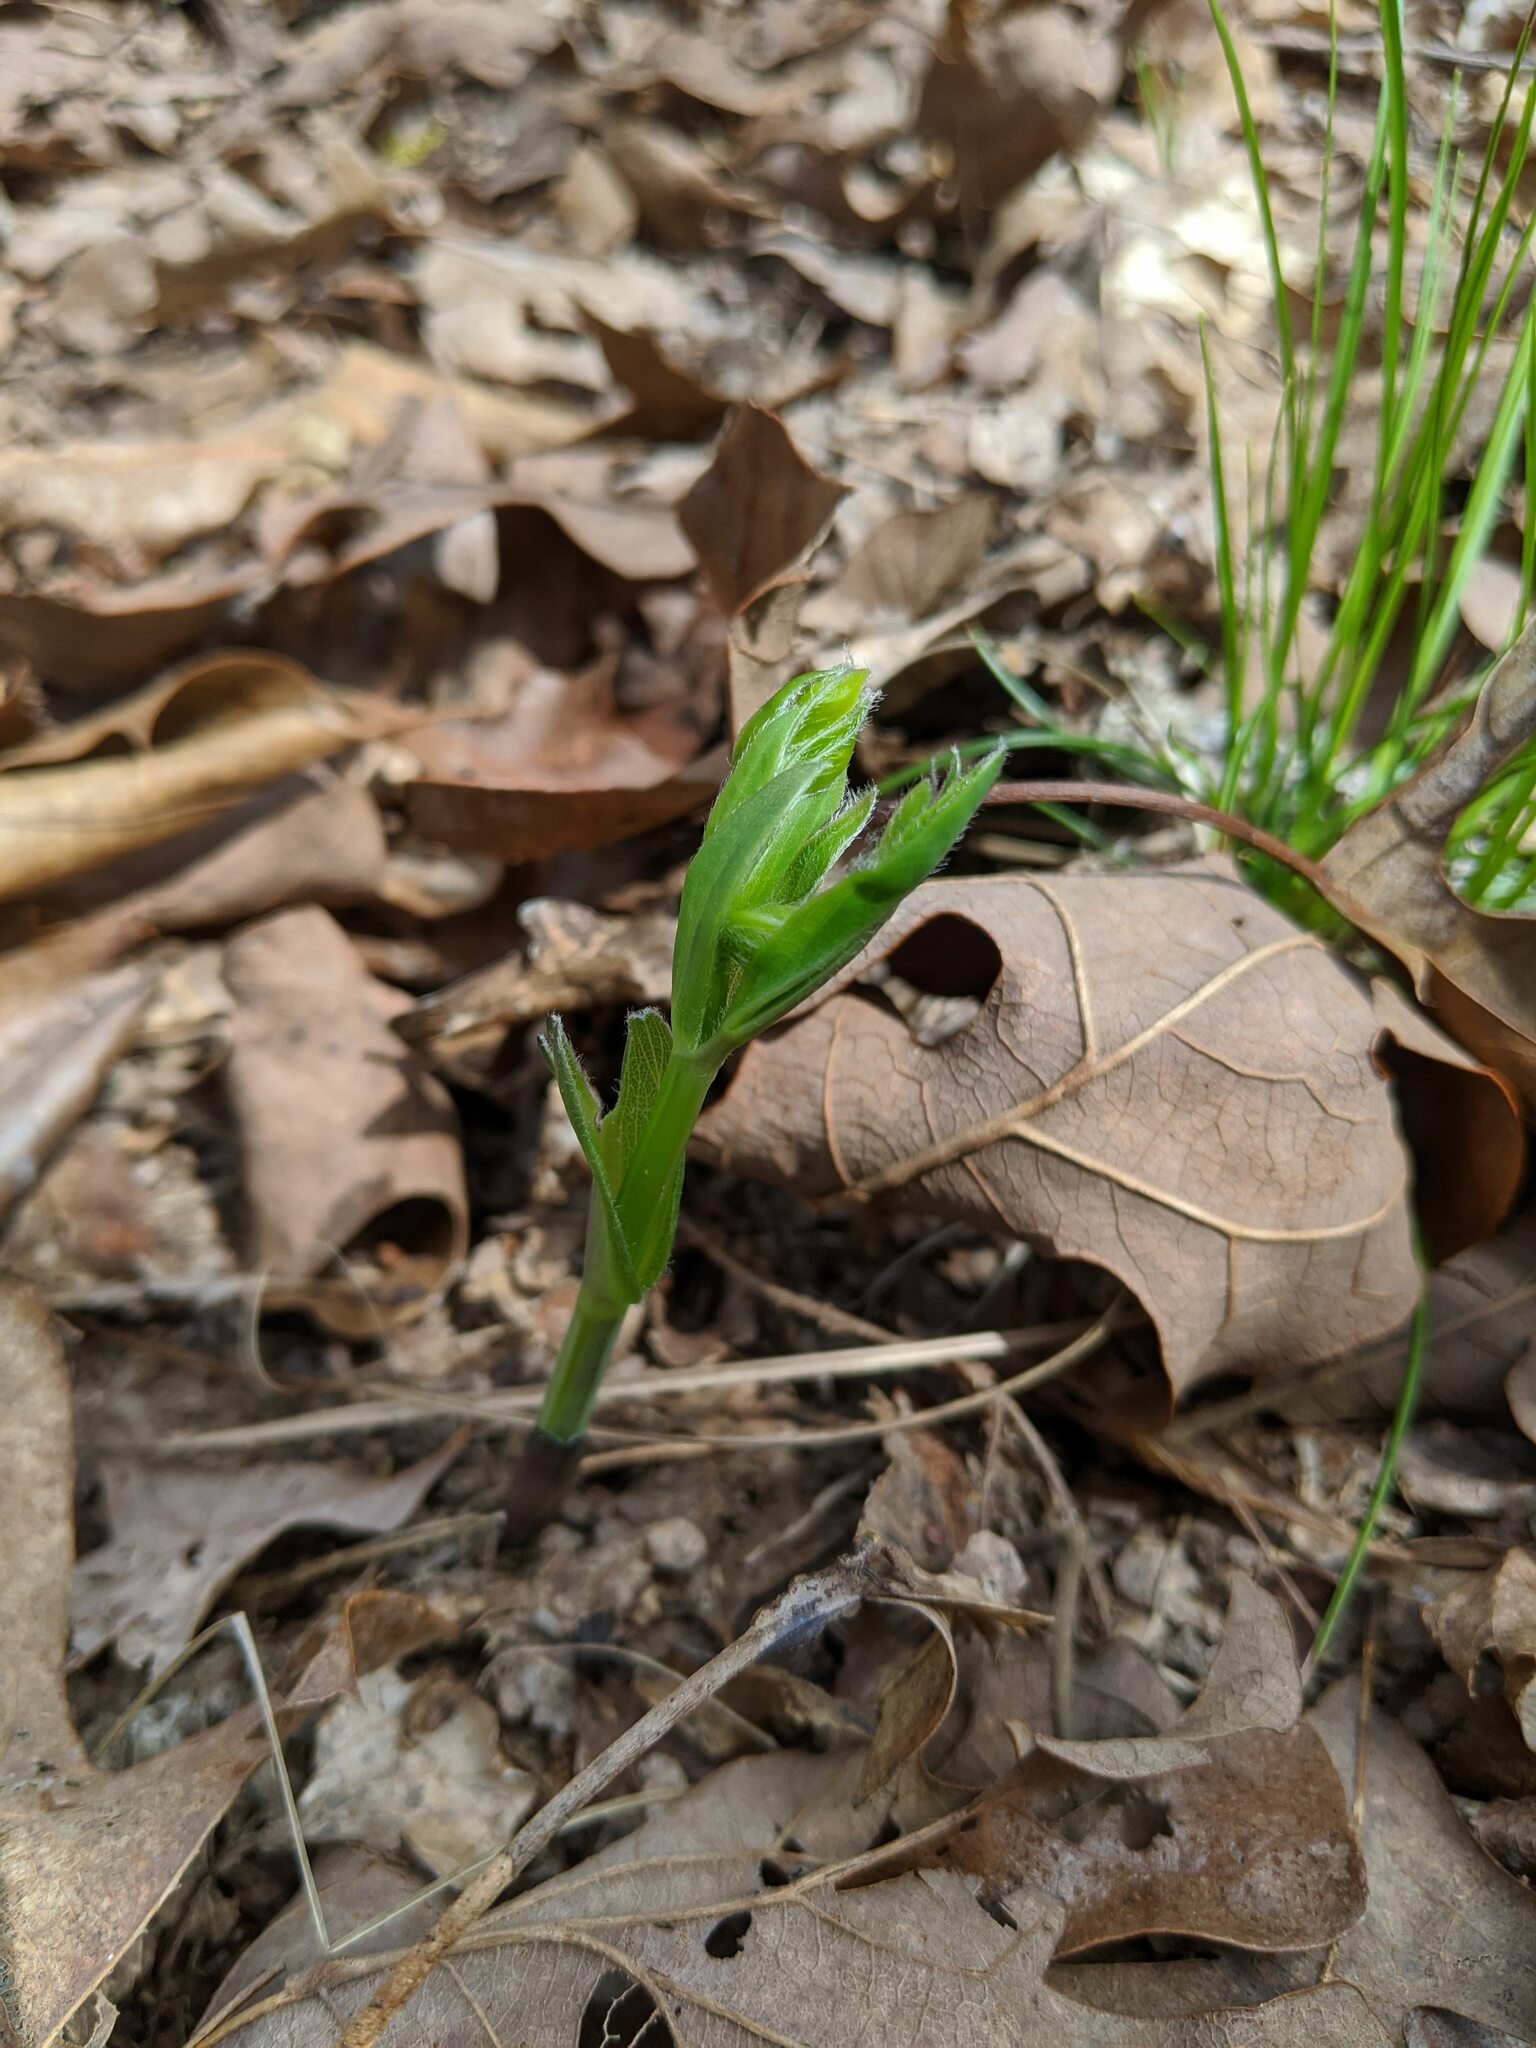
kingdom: Plantae
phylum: Tracheophyta
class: Magnoliopsida
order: Fabales
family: Fabaceae
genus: Baptisia
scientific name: Baptisia bracteata
